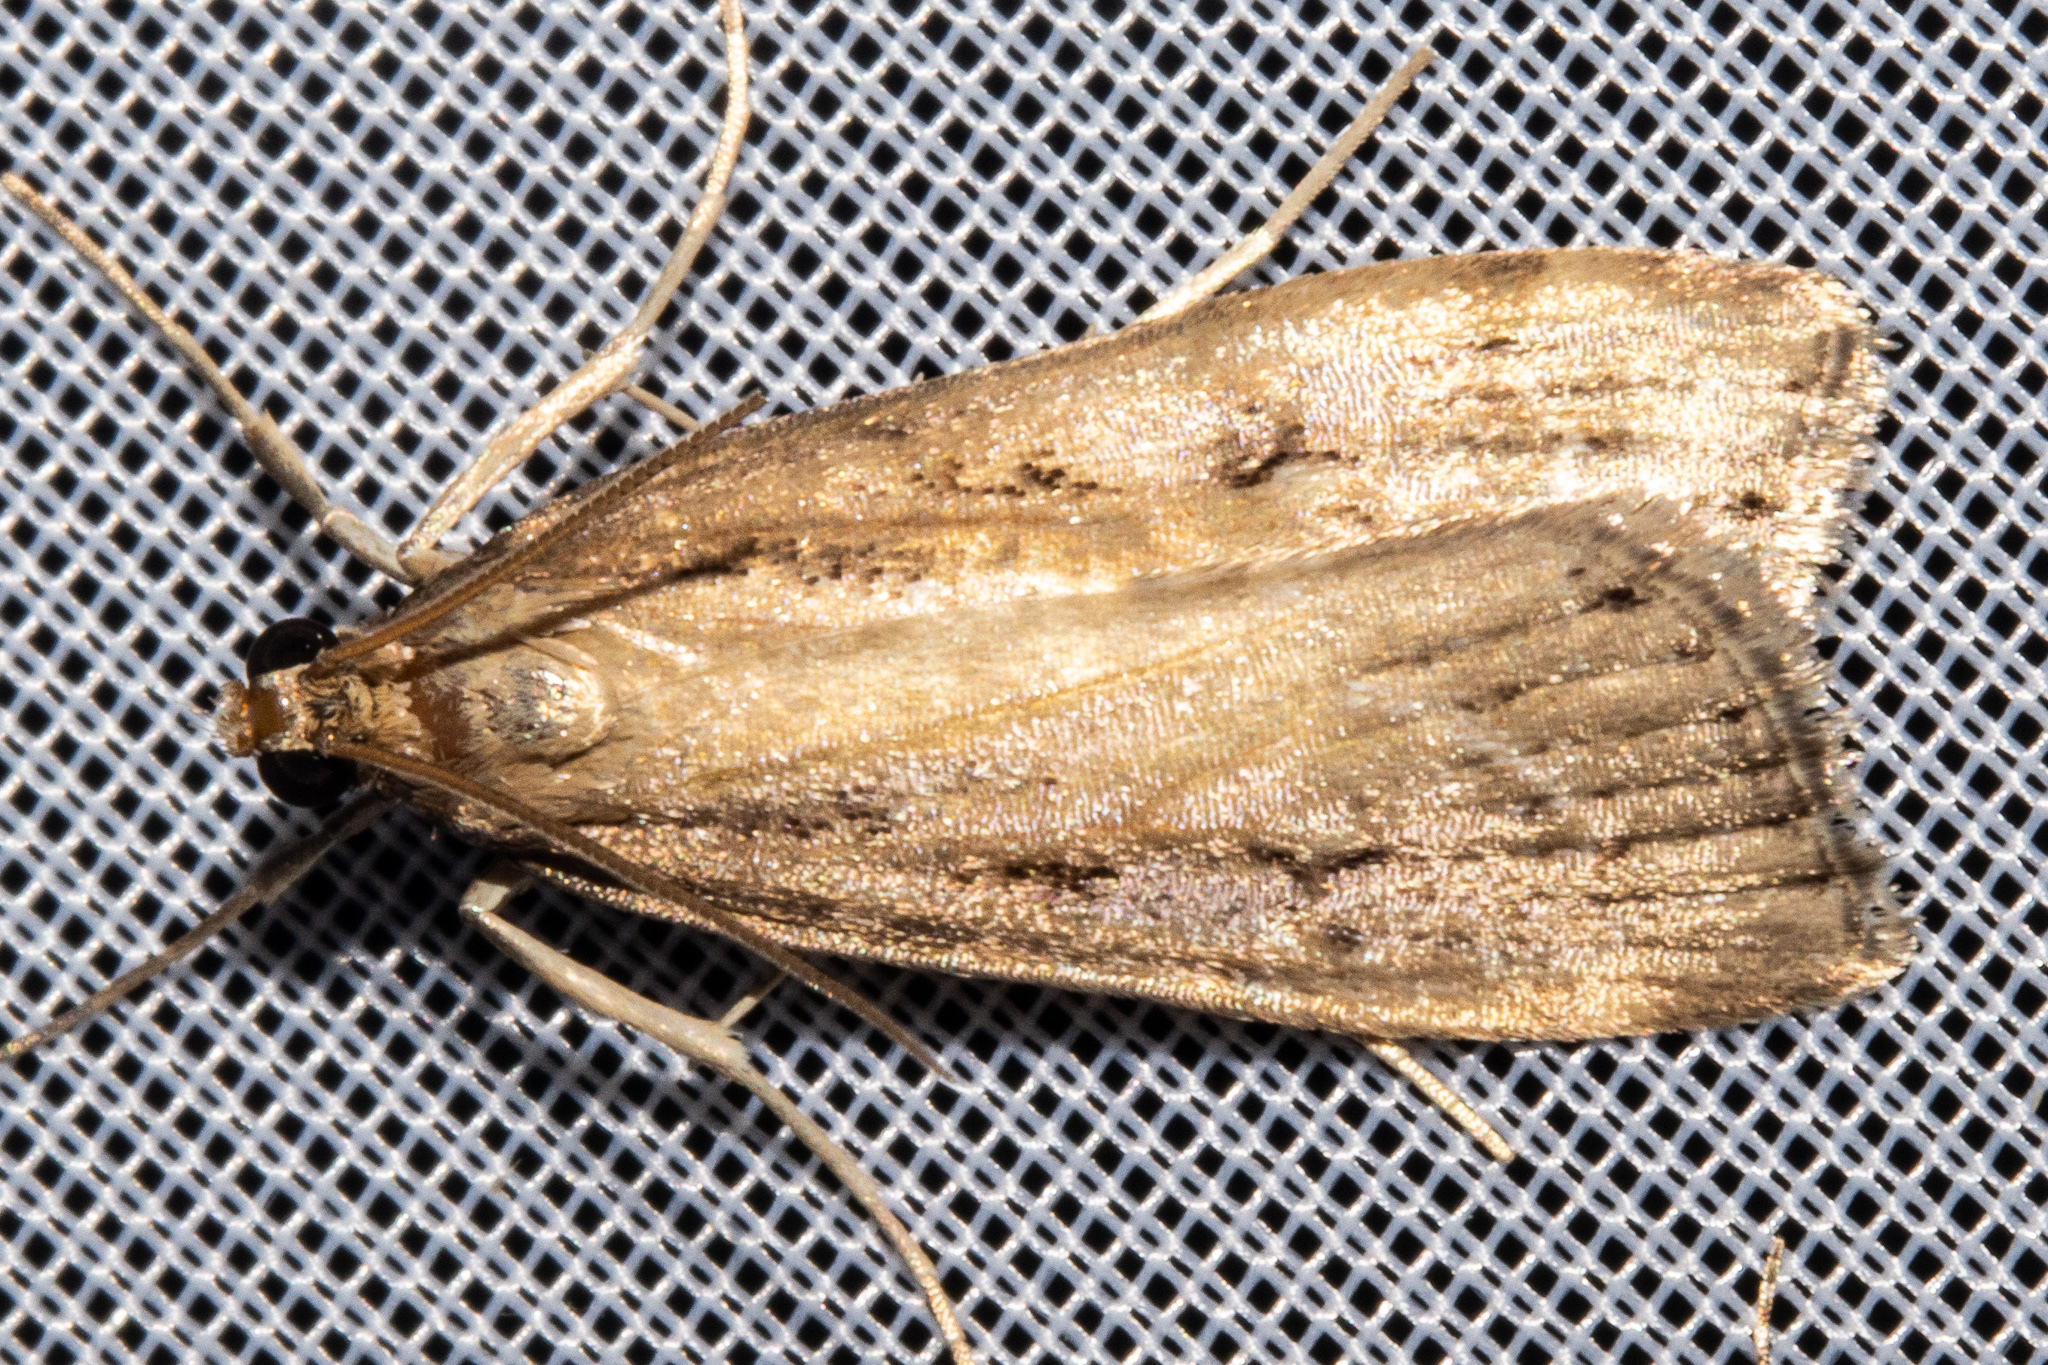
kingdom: Animalia
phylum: Arthropoda
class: Insecta
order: Lepidoptera
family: Crambidae
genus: Eudonia
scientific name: Eudonia chalara
